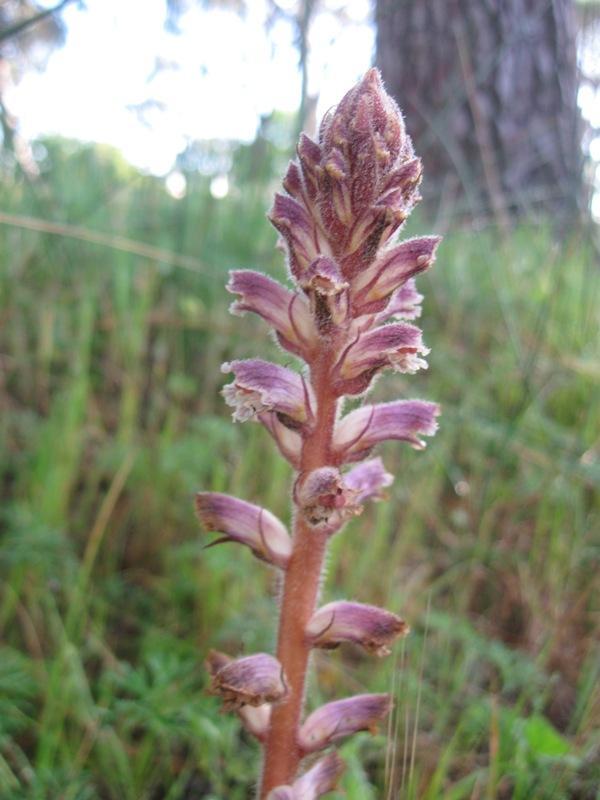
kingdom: Plantae
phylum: Tracheophyta
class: Magnoliopsida
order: Lamiales
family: Orobanchaceae
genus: Orobanche
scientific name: Orobanche minor
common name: Common broomrape
